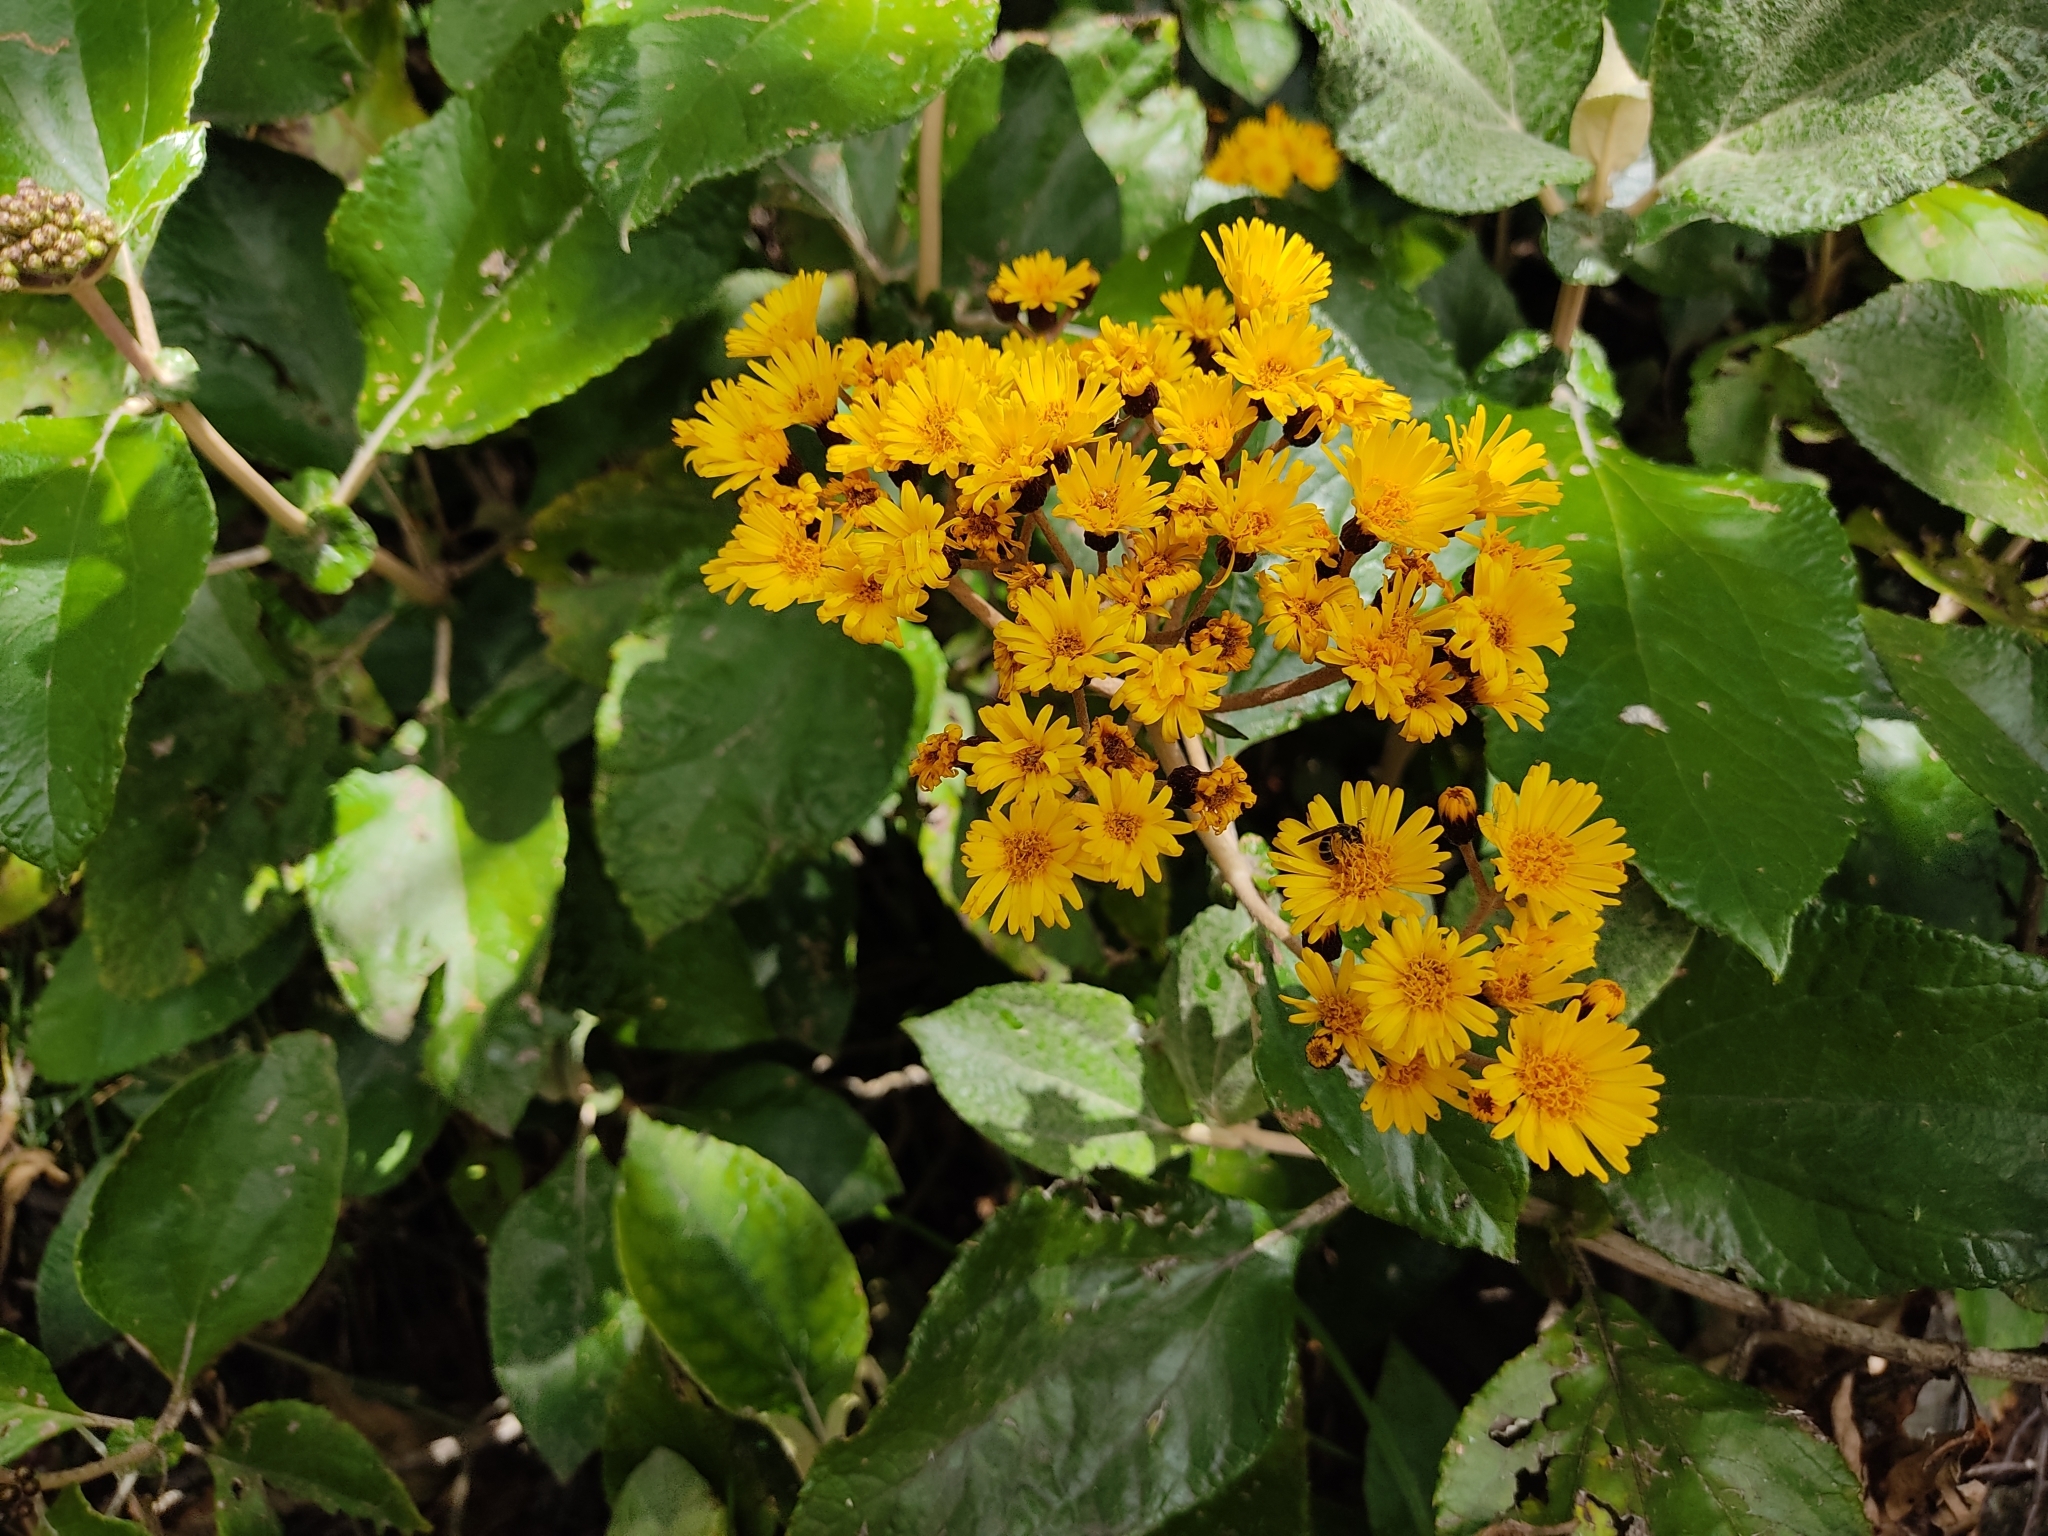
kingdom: Plantae
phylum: Tracheophyta
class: Magnoliopsida
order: Asterales
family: Asteraceae
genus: Liabum
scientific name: Liabum igniarium
